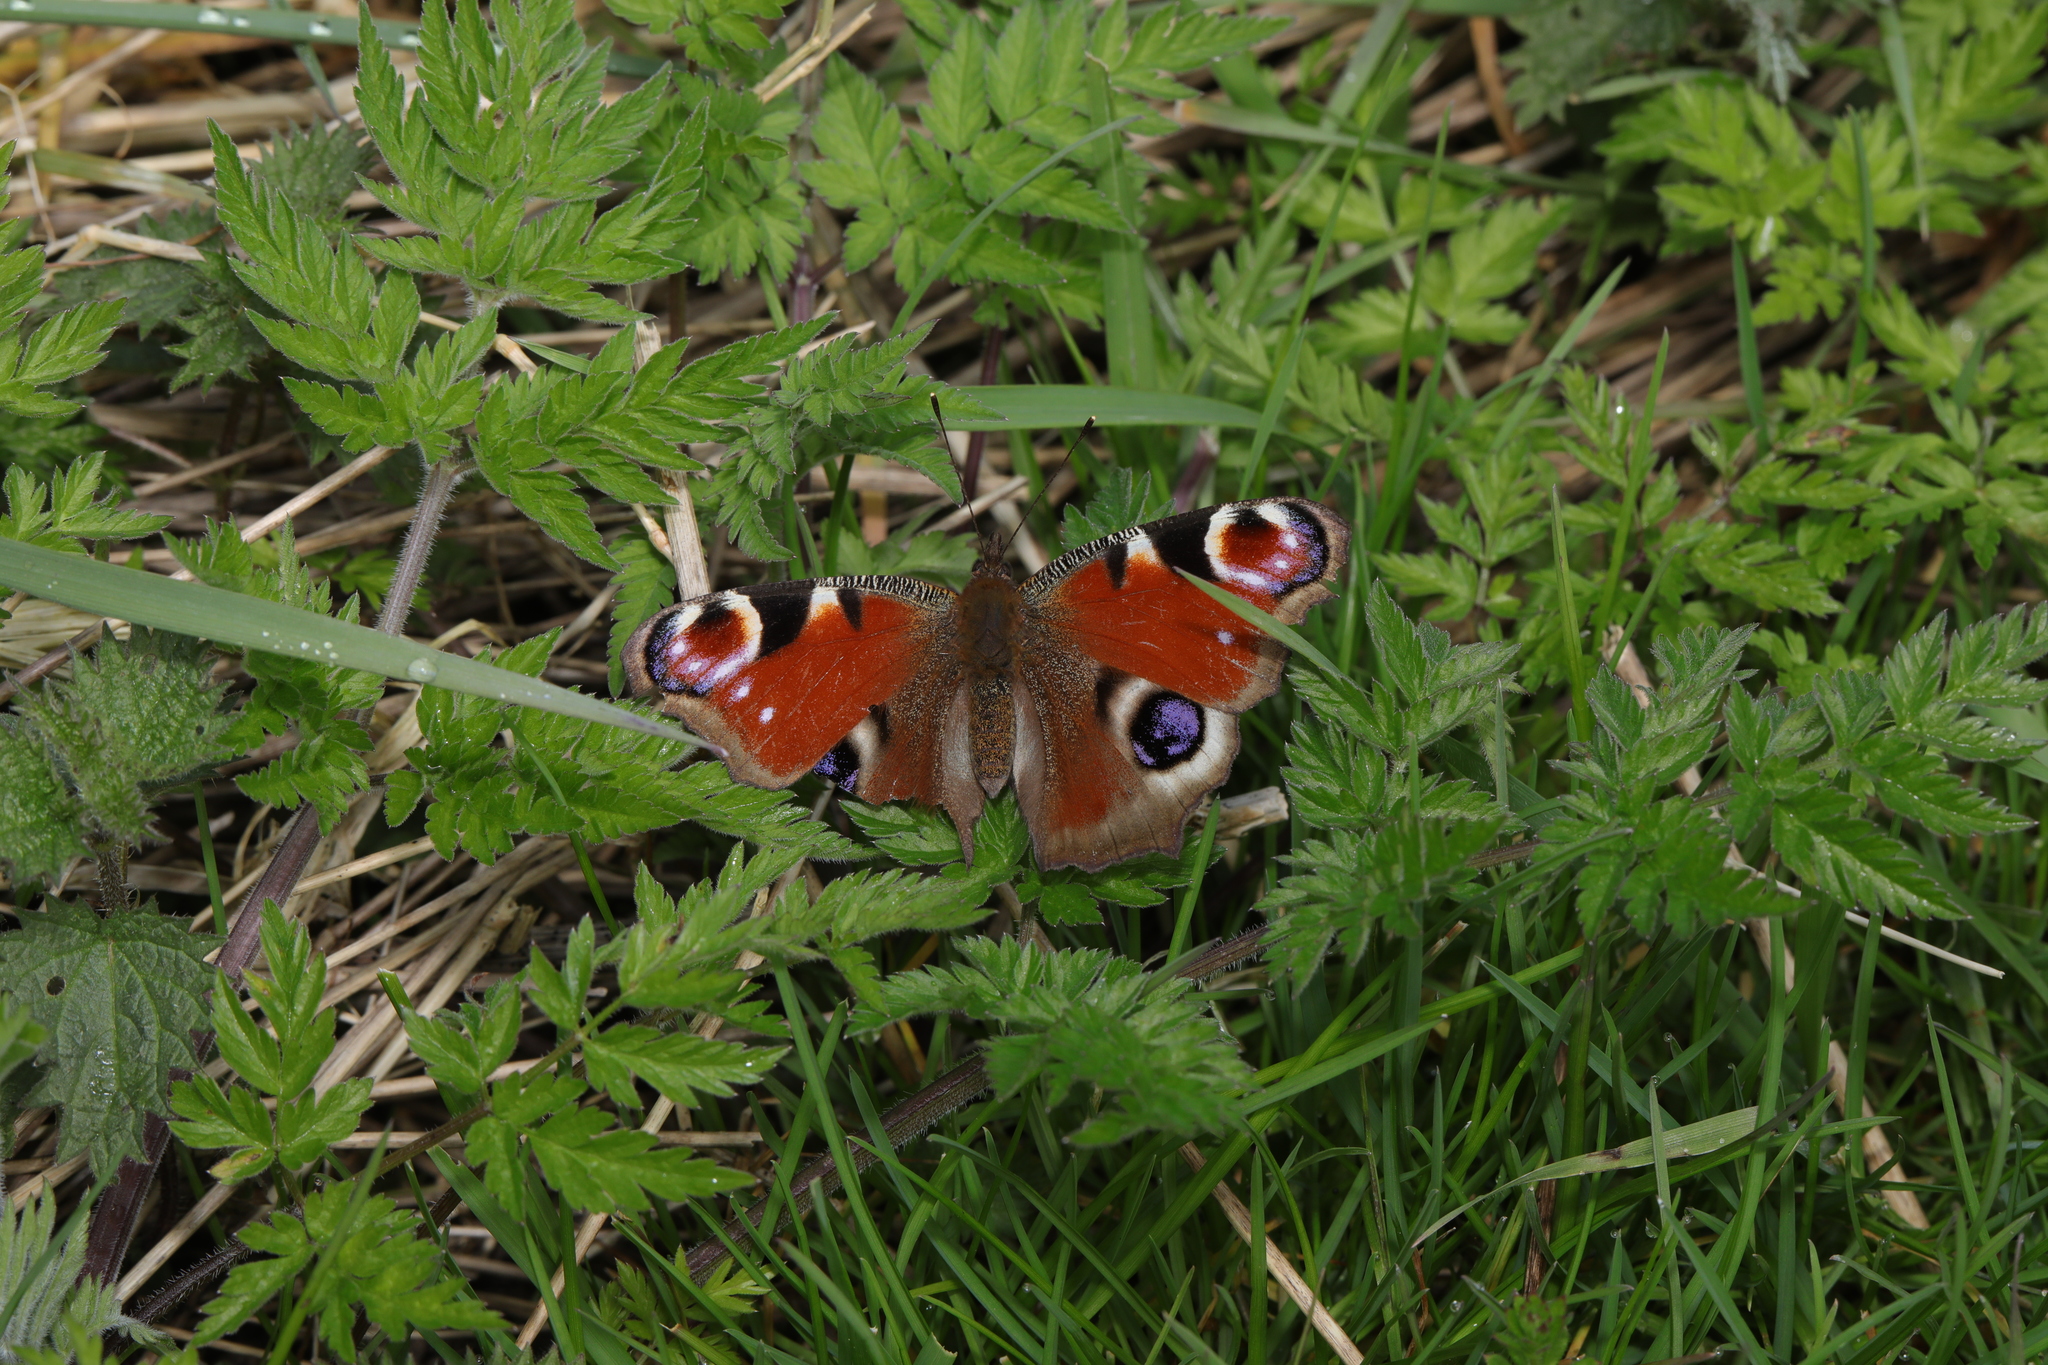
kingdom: Animalia
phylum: Arthropoda
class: Insecta
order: Lepidoptera
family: Nymphalidae
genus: Aglais
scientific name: Aglais io
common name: Peacock
